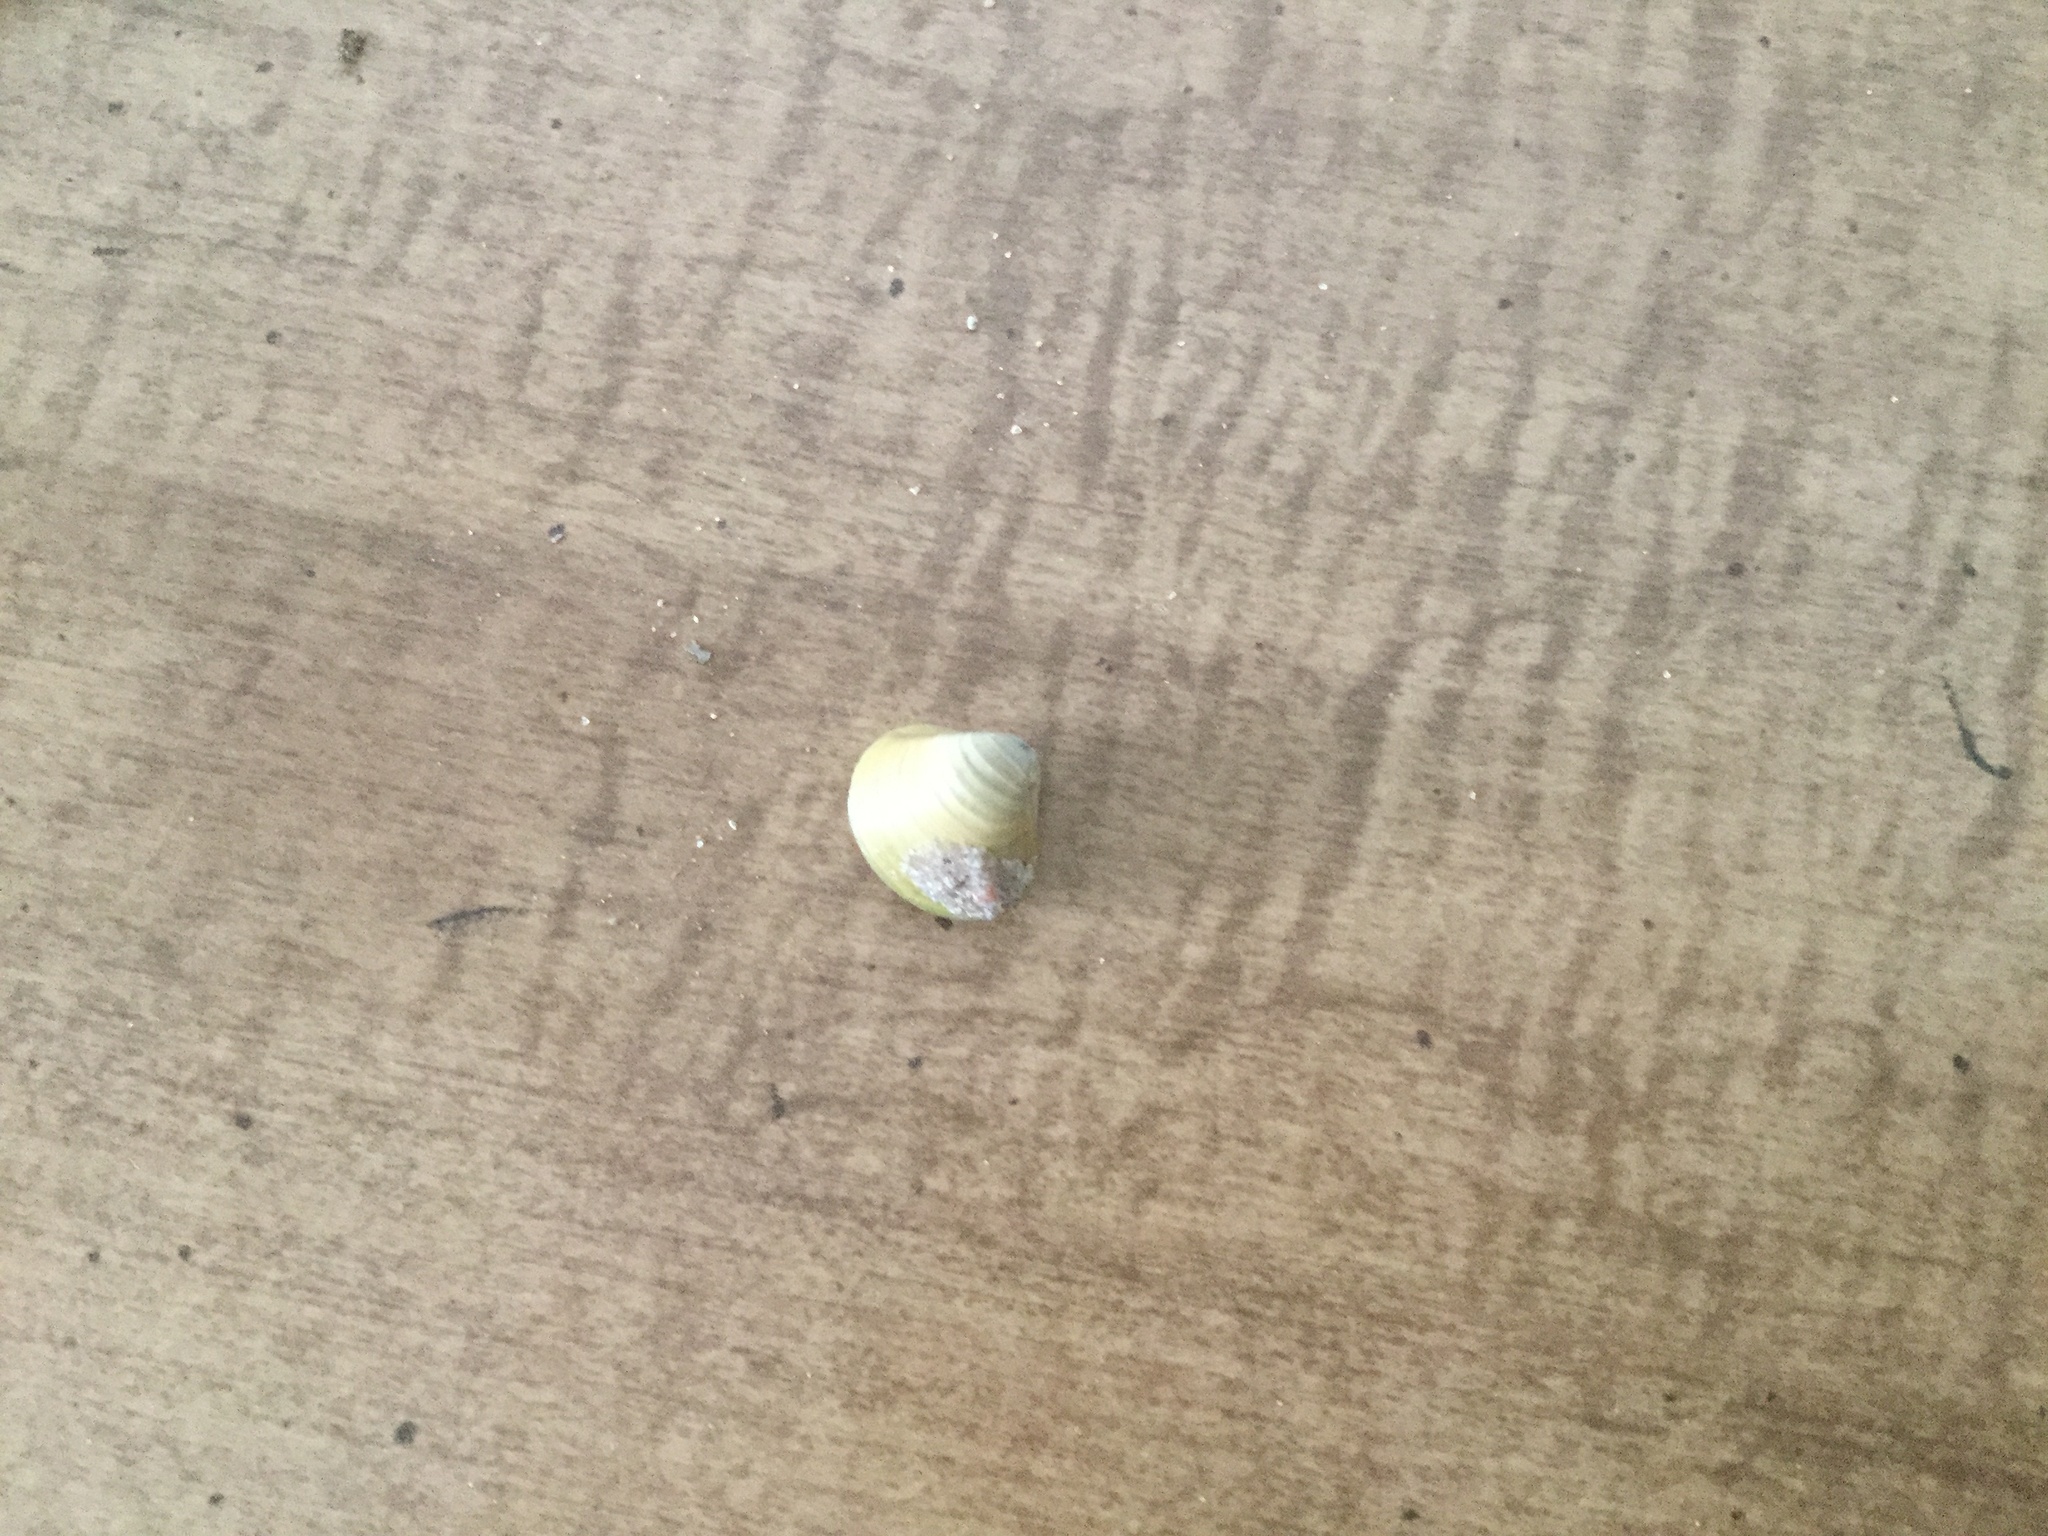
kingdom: Animalia
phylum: Mollusca
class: Bivalvia
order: Venerida
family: Cyrenidae
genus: Corbicula
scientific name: Corbicula fluminea
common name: Asian clam
